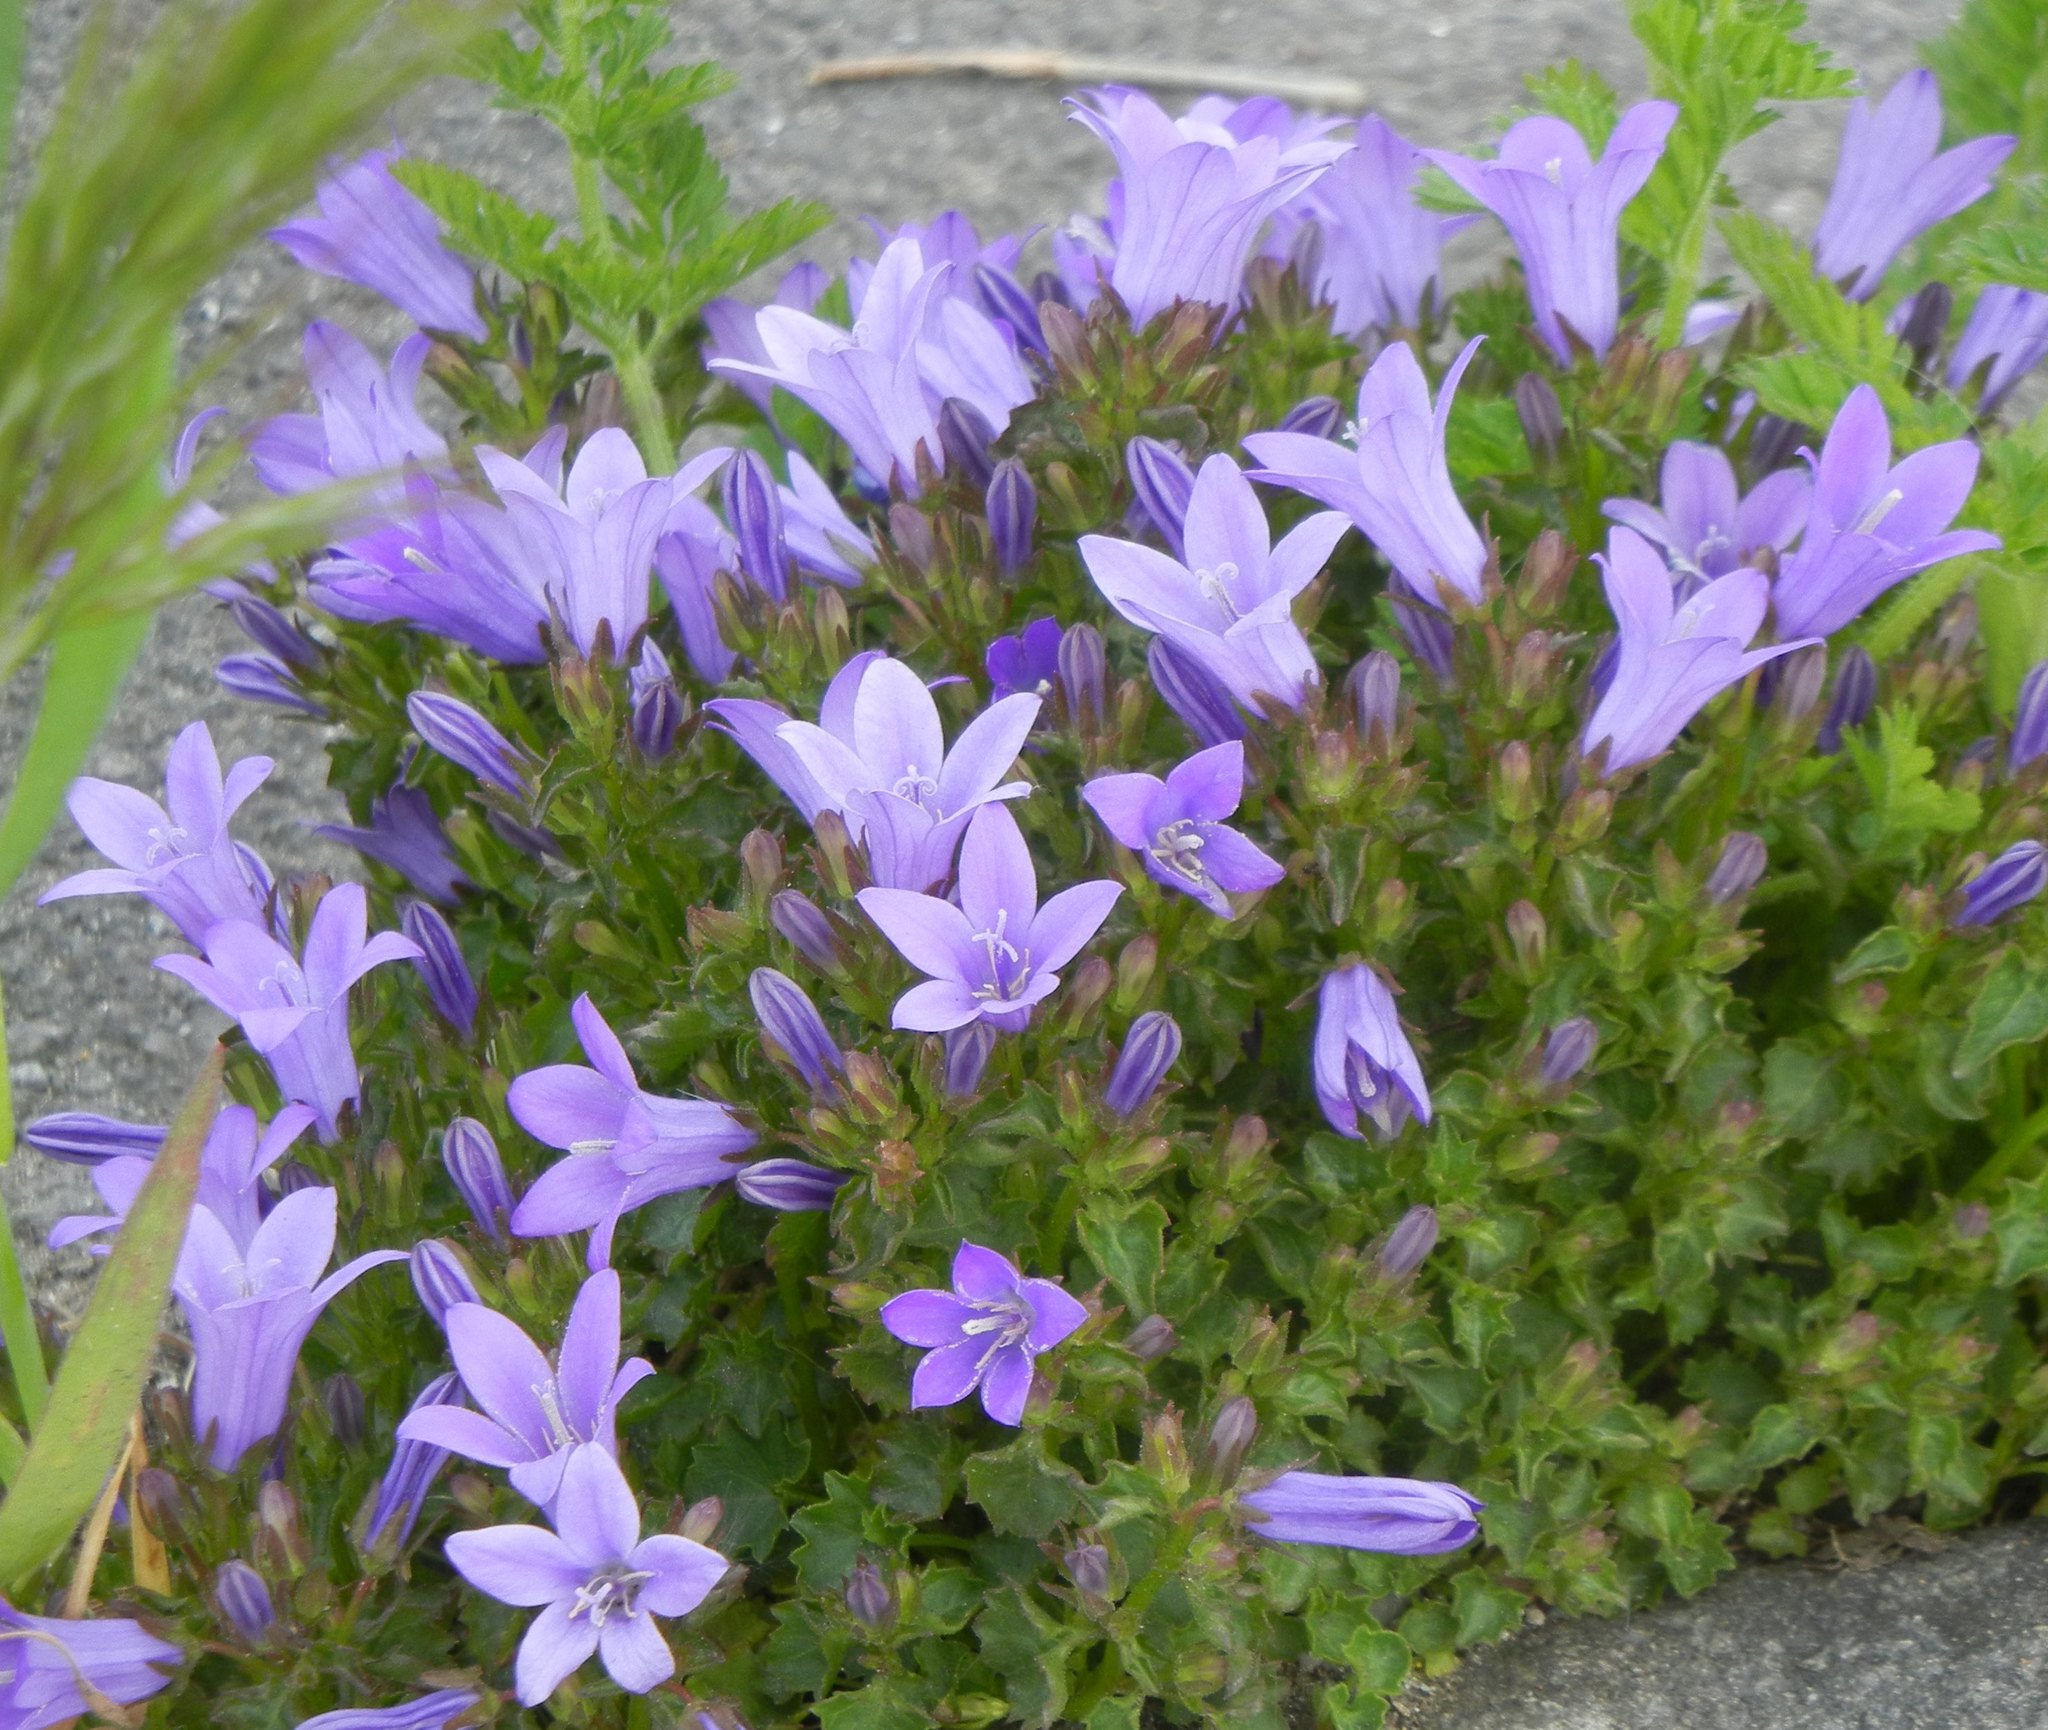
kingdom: Plantae
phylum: Tracheophyta
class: Magnoliopsida
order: Asterales
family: Campanulaceae
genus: Campanula
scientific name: Campanula portenschlagiana
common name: Adria bellflower
